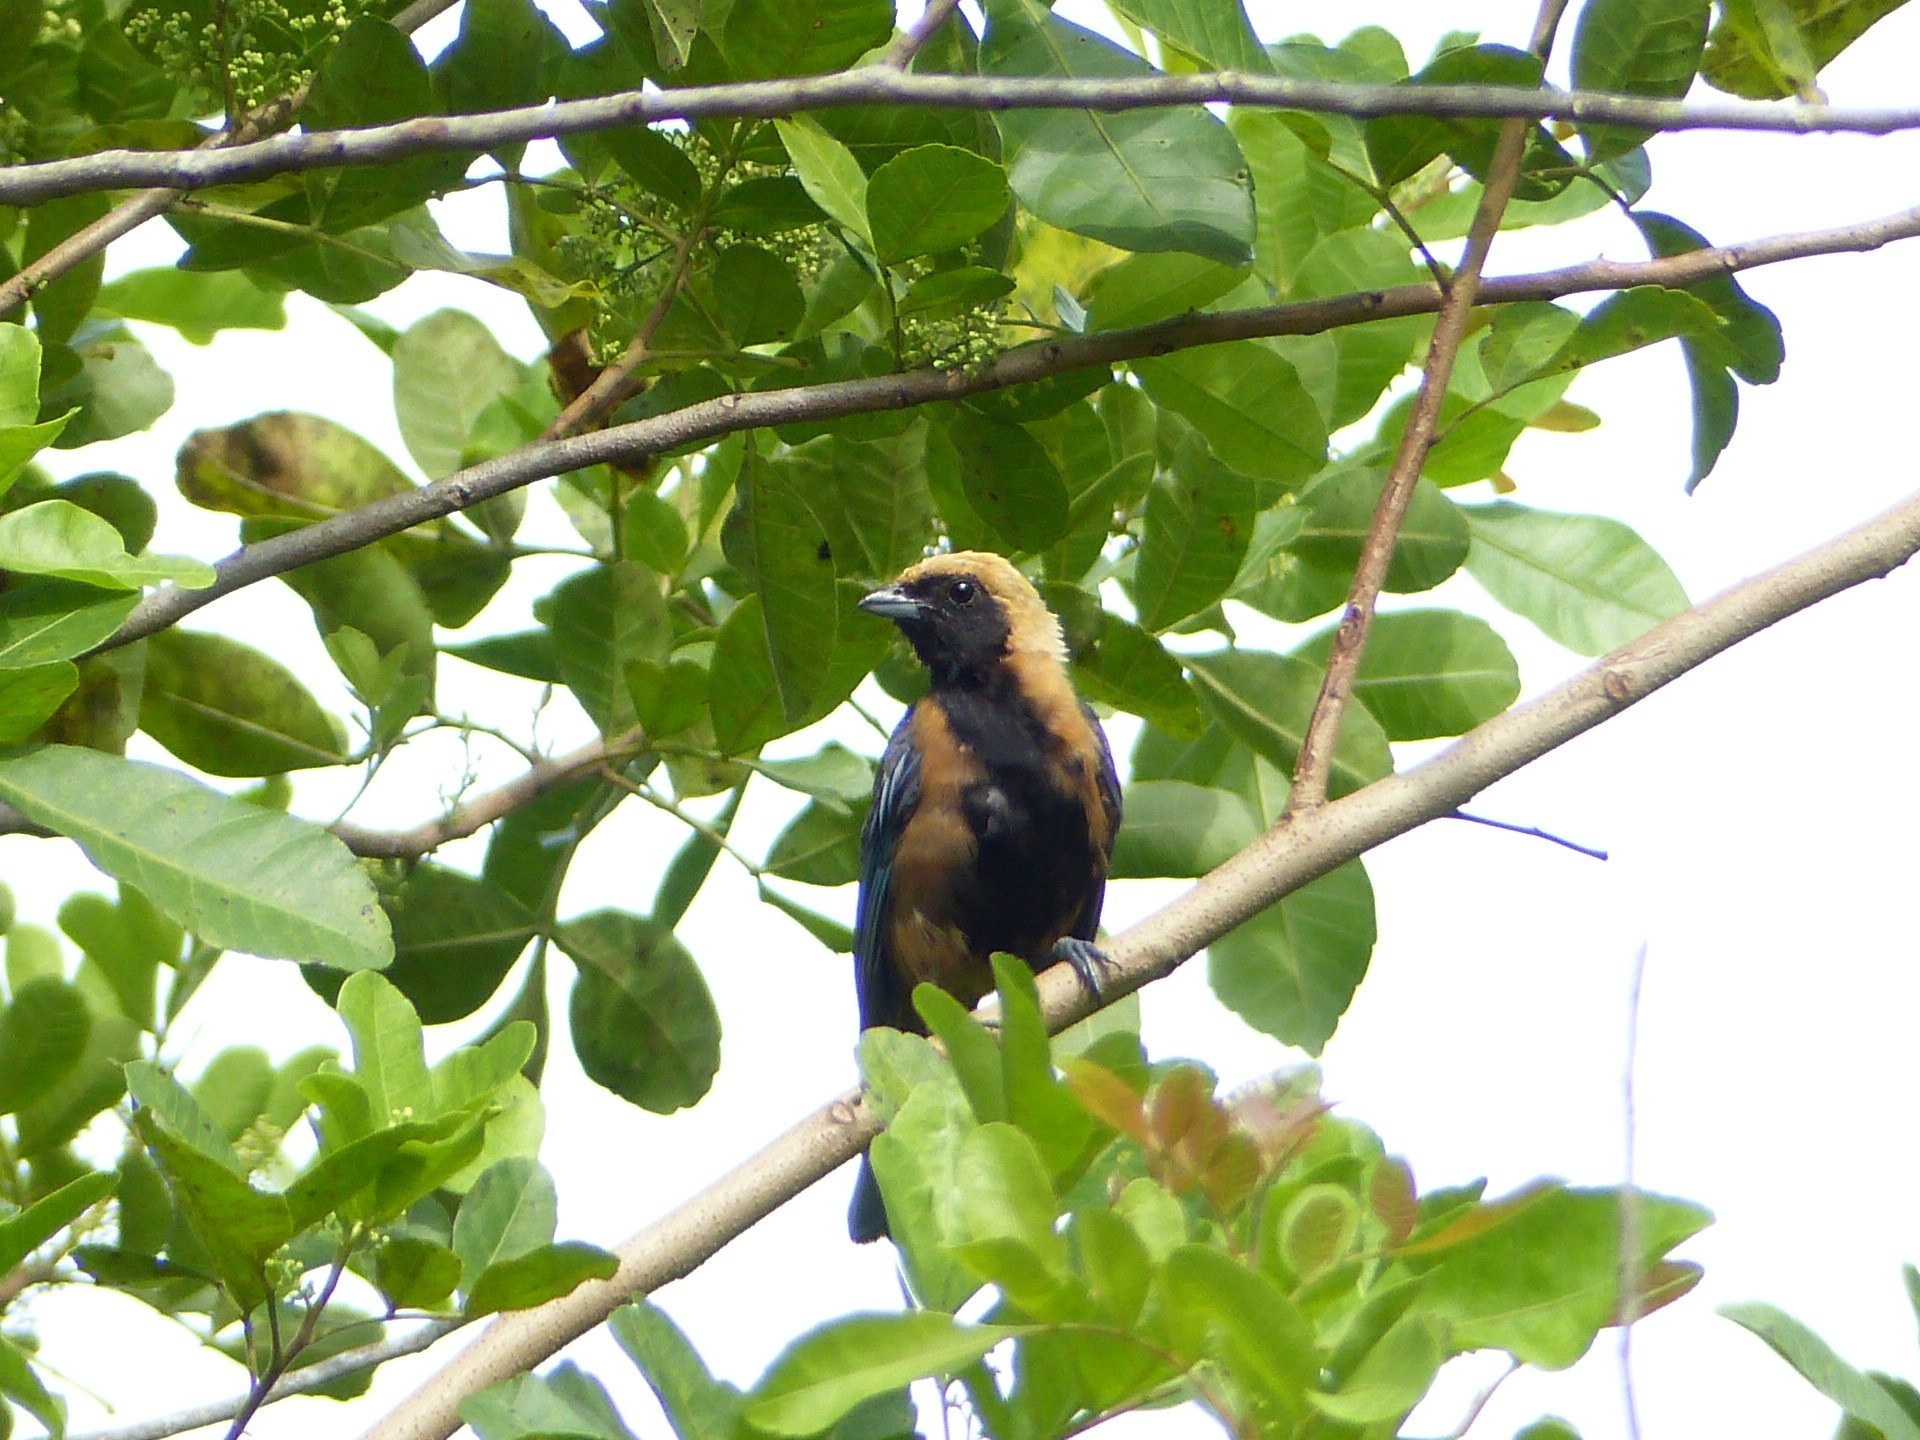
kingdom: Animalia
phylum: Chordata
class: Aves
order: Passeriformes
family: Thraupidae
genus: Stilpnia
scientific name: Stilpnia cayana
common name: Burnished-buff tanager
